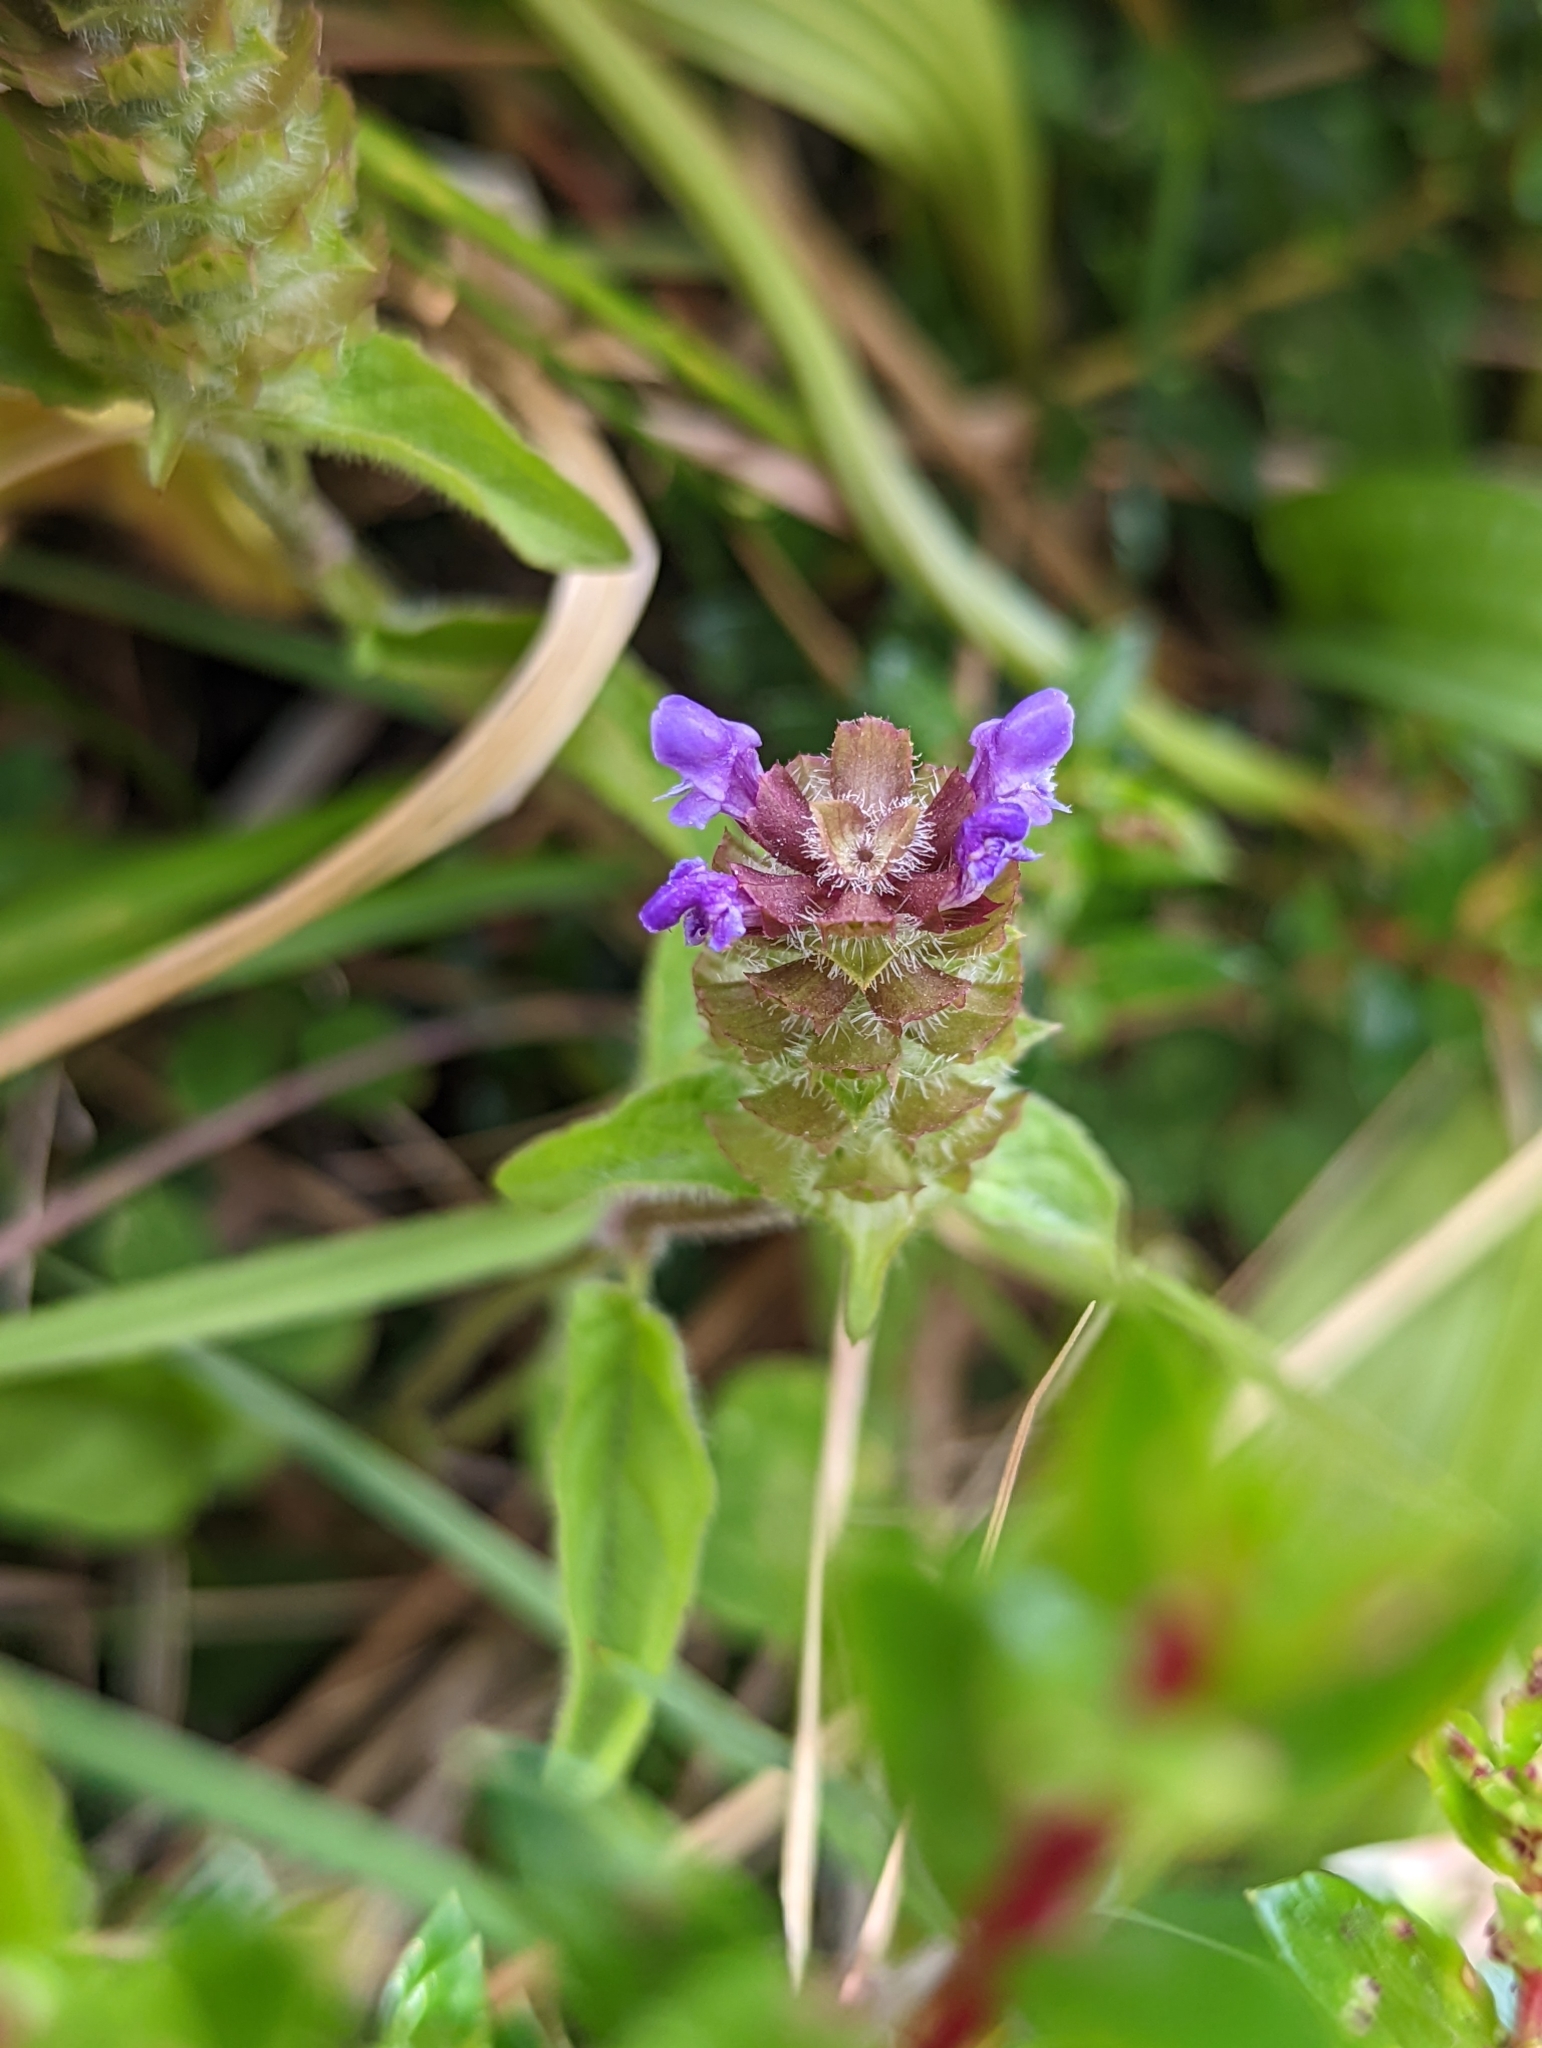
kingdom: Plantae
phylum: Tracheophyta
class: Magnoliopsida
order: Lamiales
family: Lamiaceae
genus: Prunella
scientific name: Prunella vulgaris
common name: Heal-all
